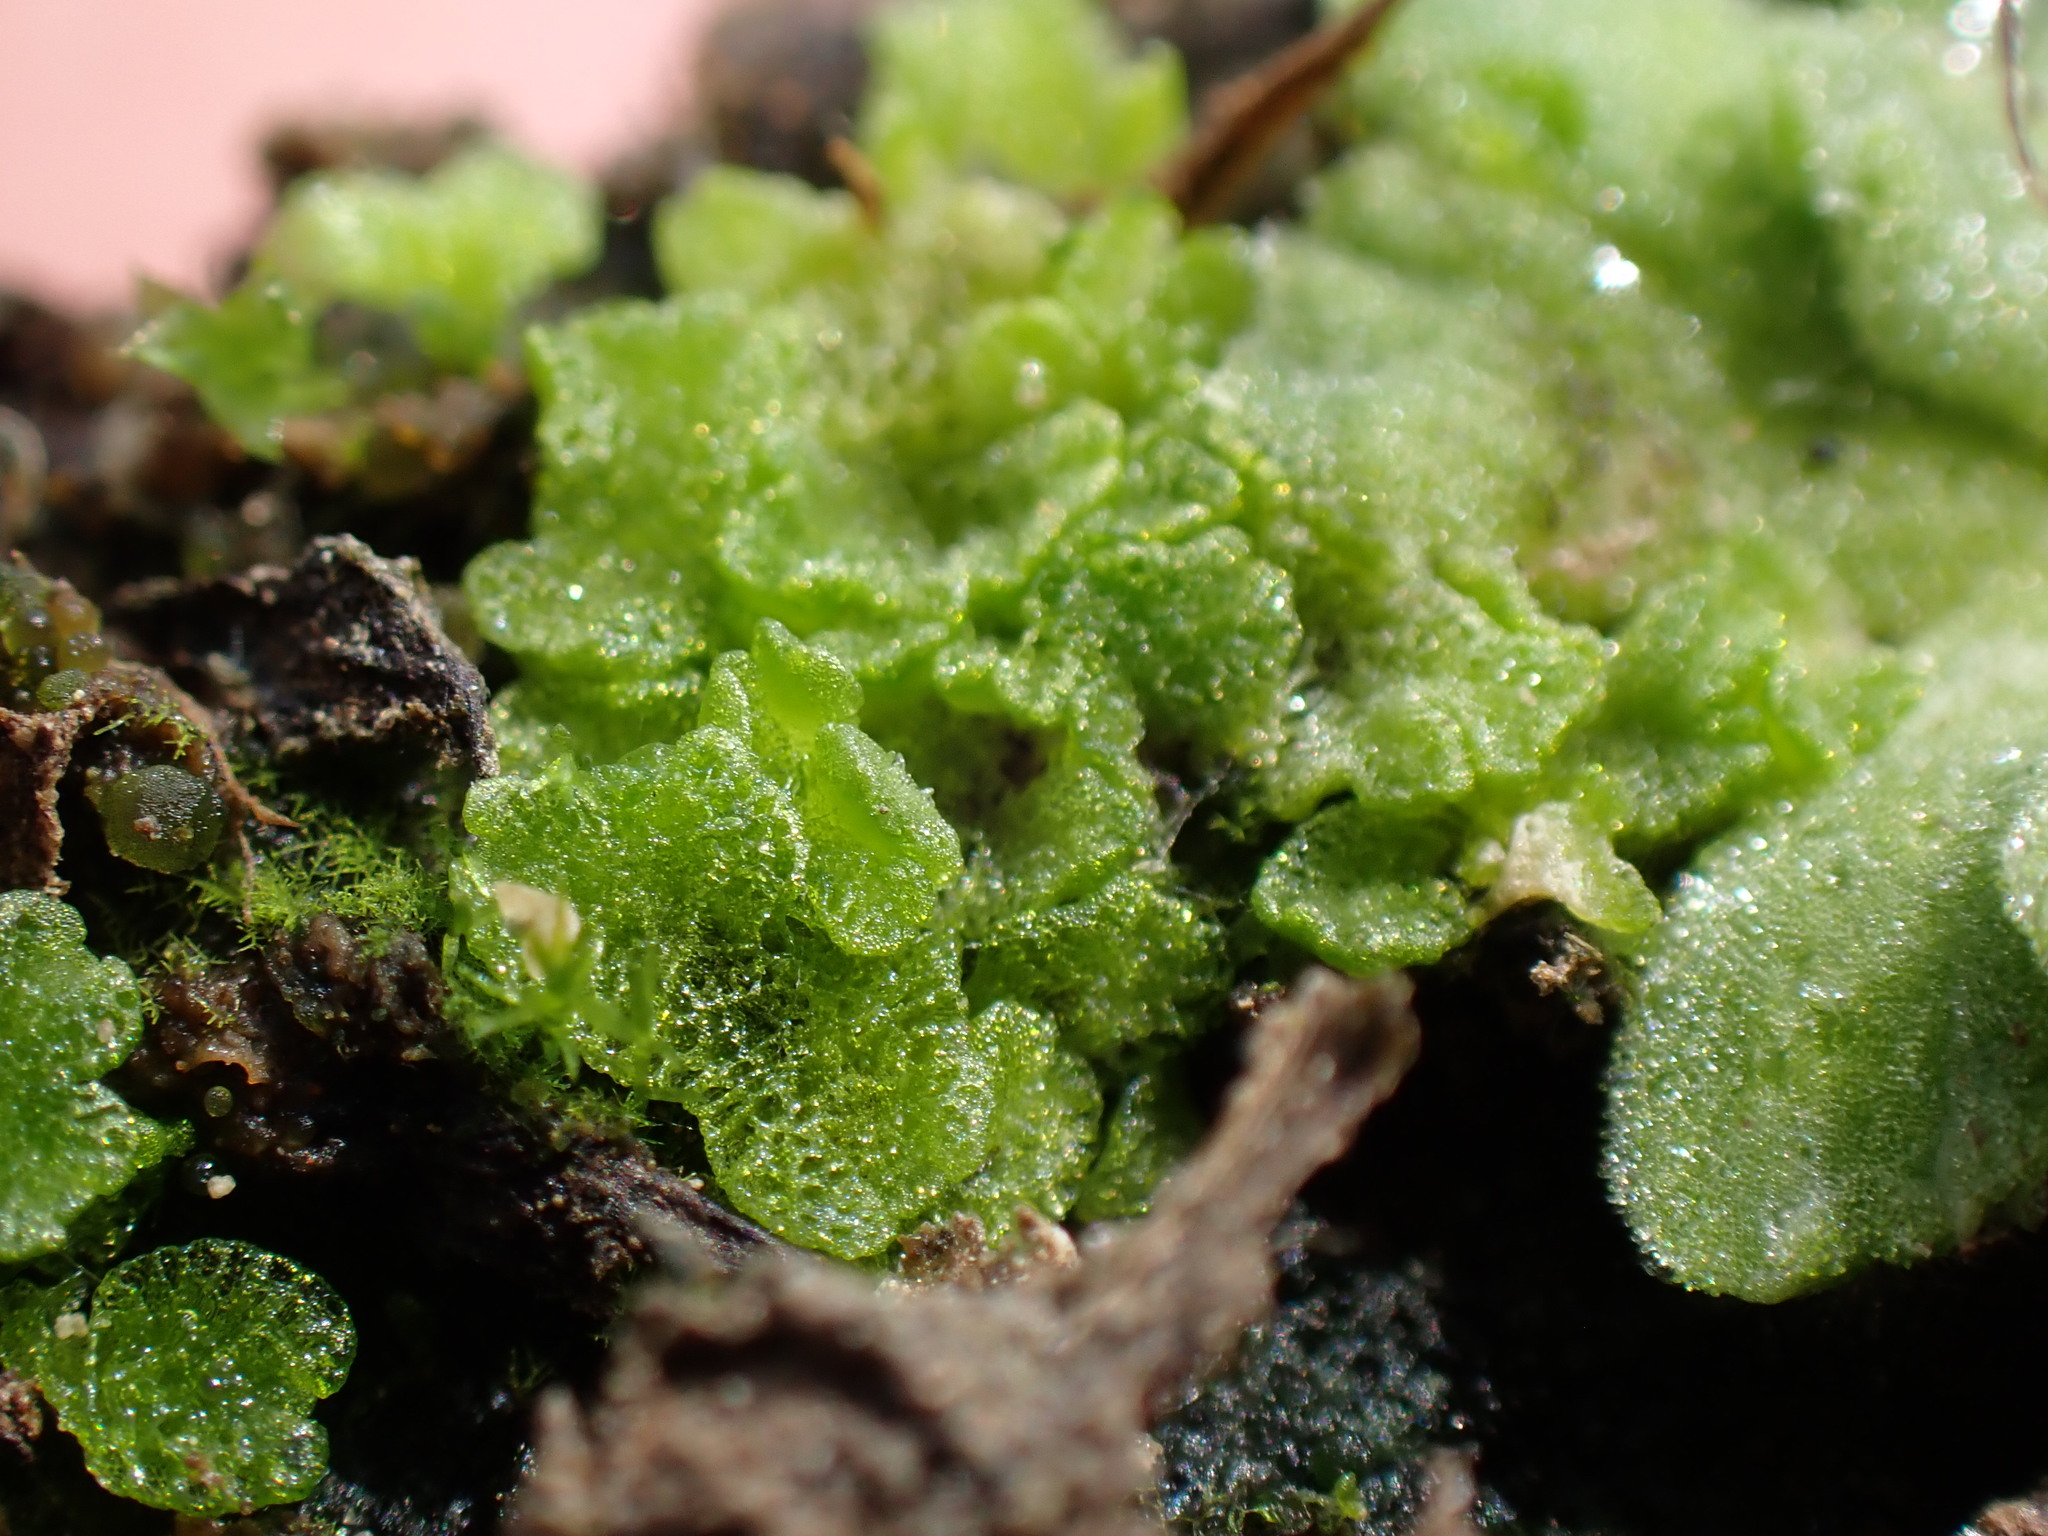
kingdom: Plantae
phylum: Marchantiophyta
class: Marchantiopsida
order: Marchantiales
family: Ricciaceae
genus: Riccia
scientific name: Riccia cavernosa
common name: Cavernous crystalwort
